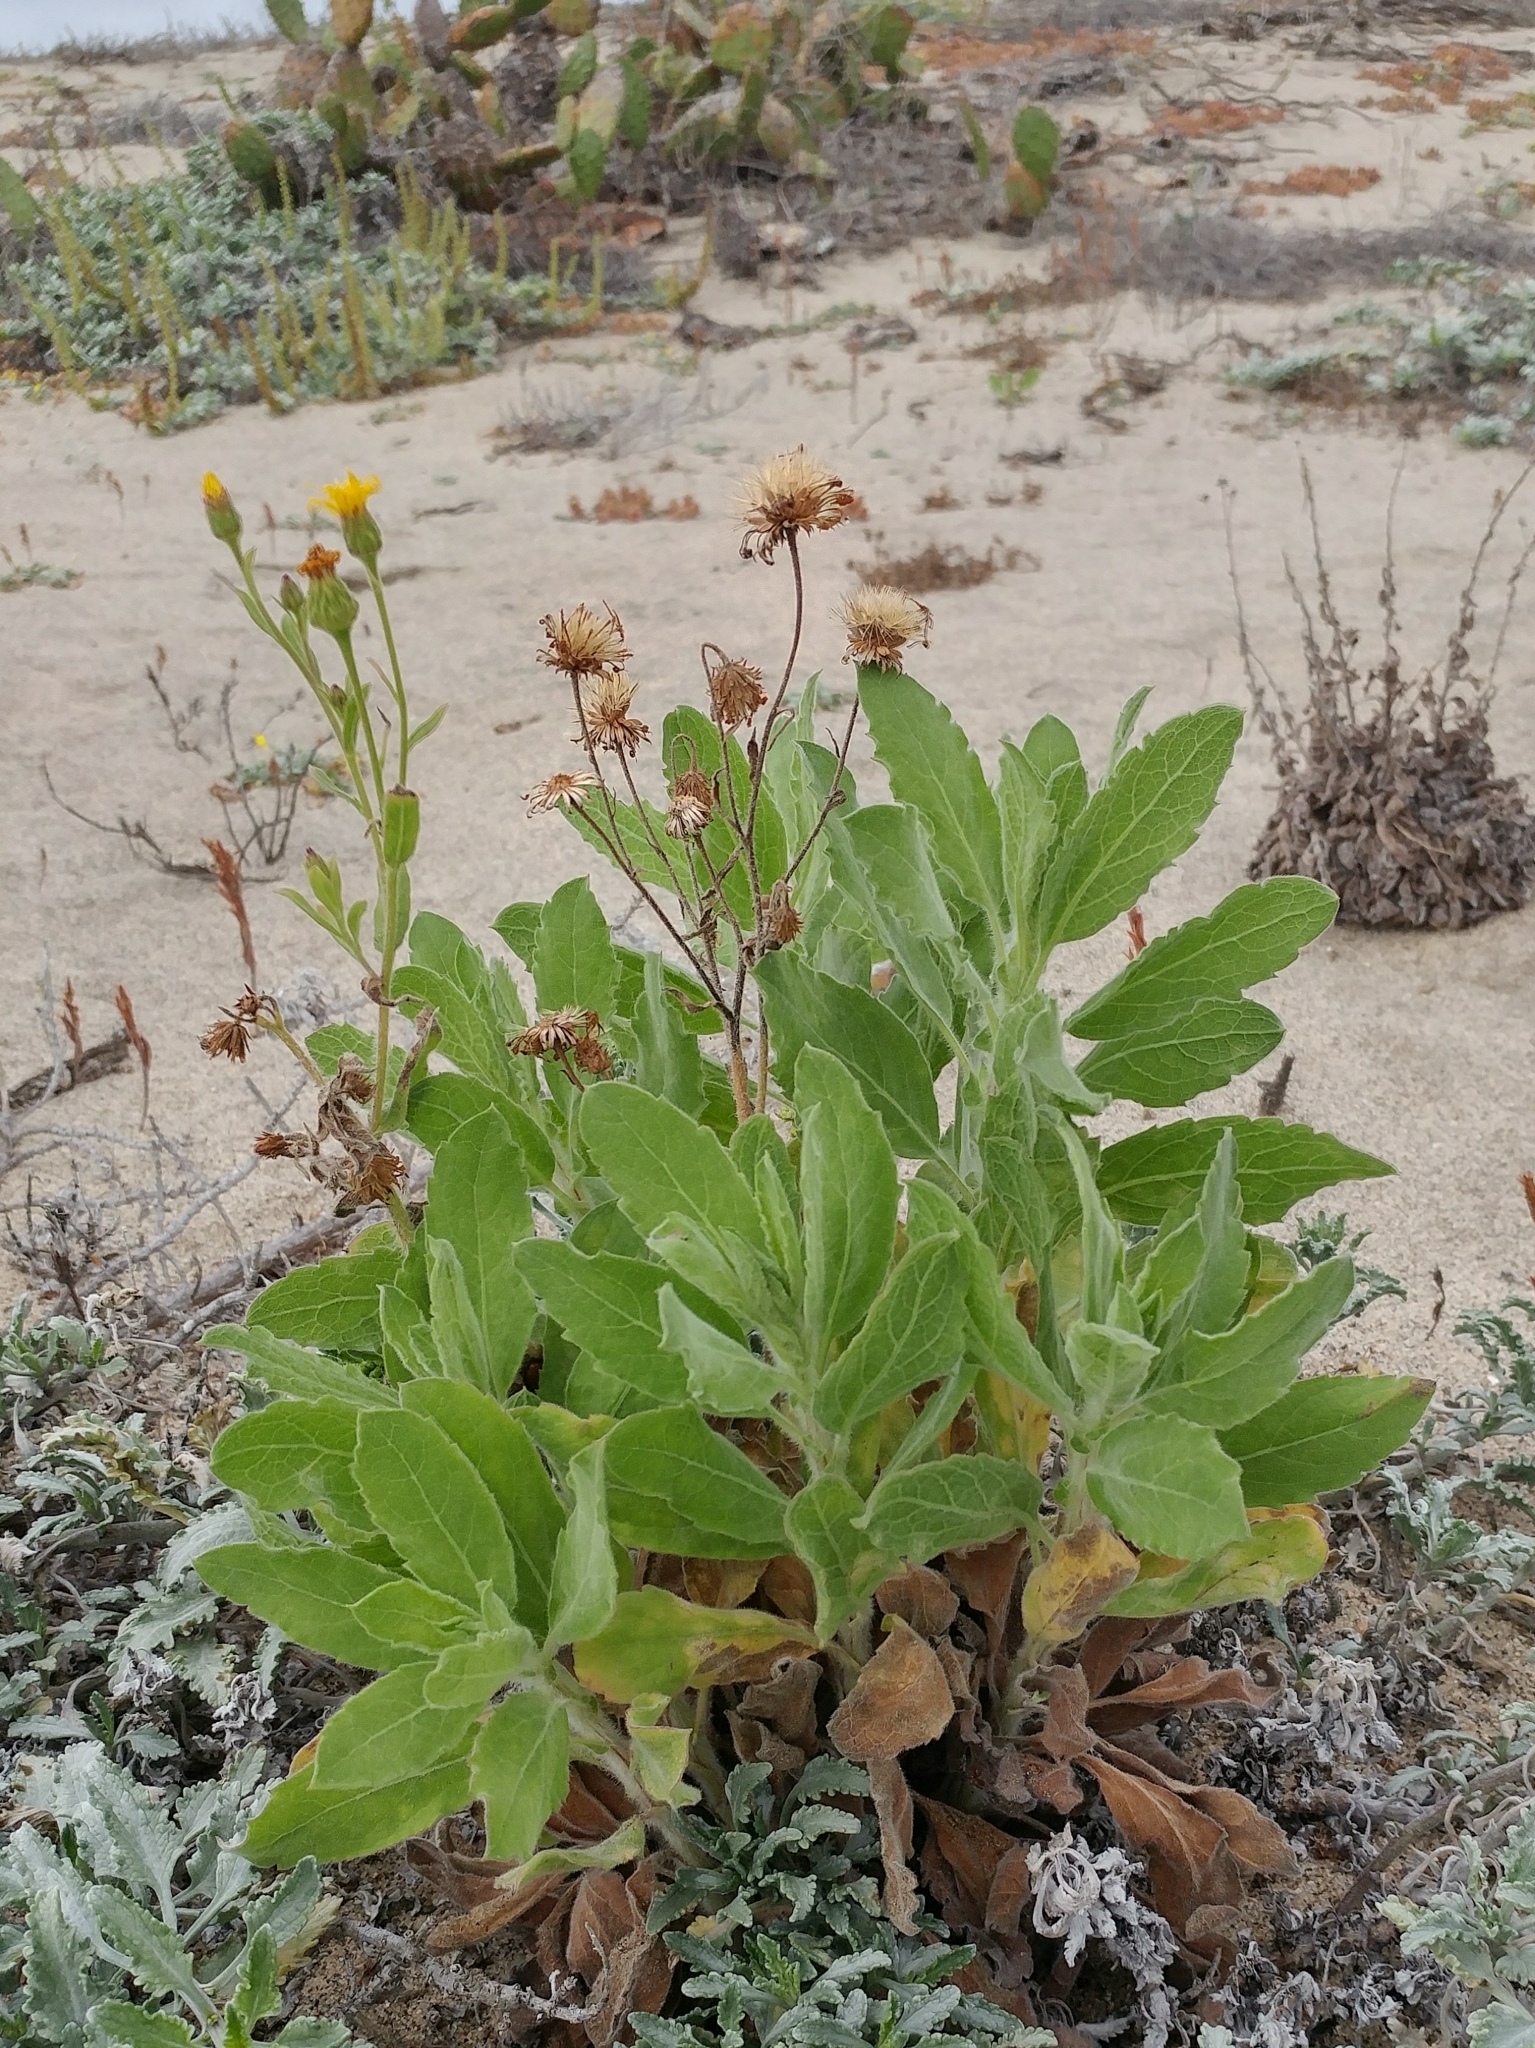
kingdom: Plantae
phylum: Tracheophyta
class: Magnoliopsida
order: Asterales
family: Asteraceae
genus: Heterotheca
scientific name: Heterotheca grandiflora
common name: Telegraphweed
